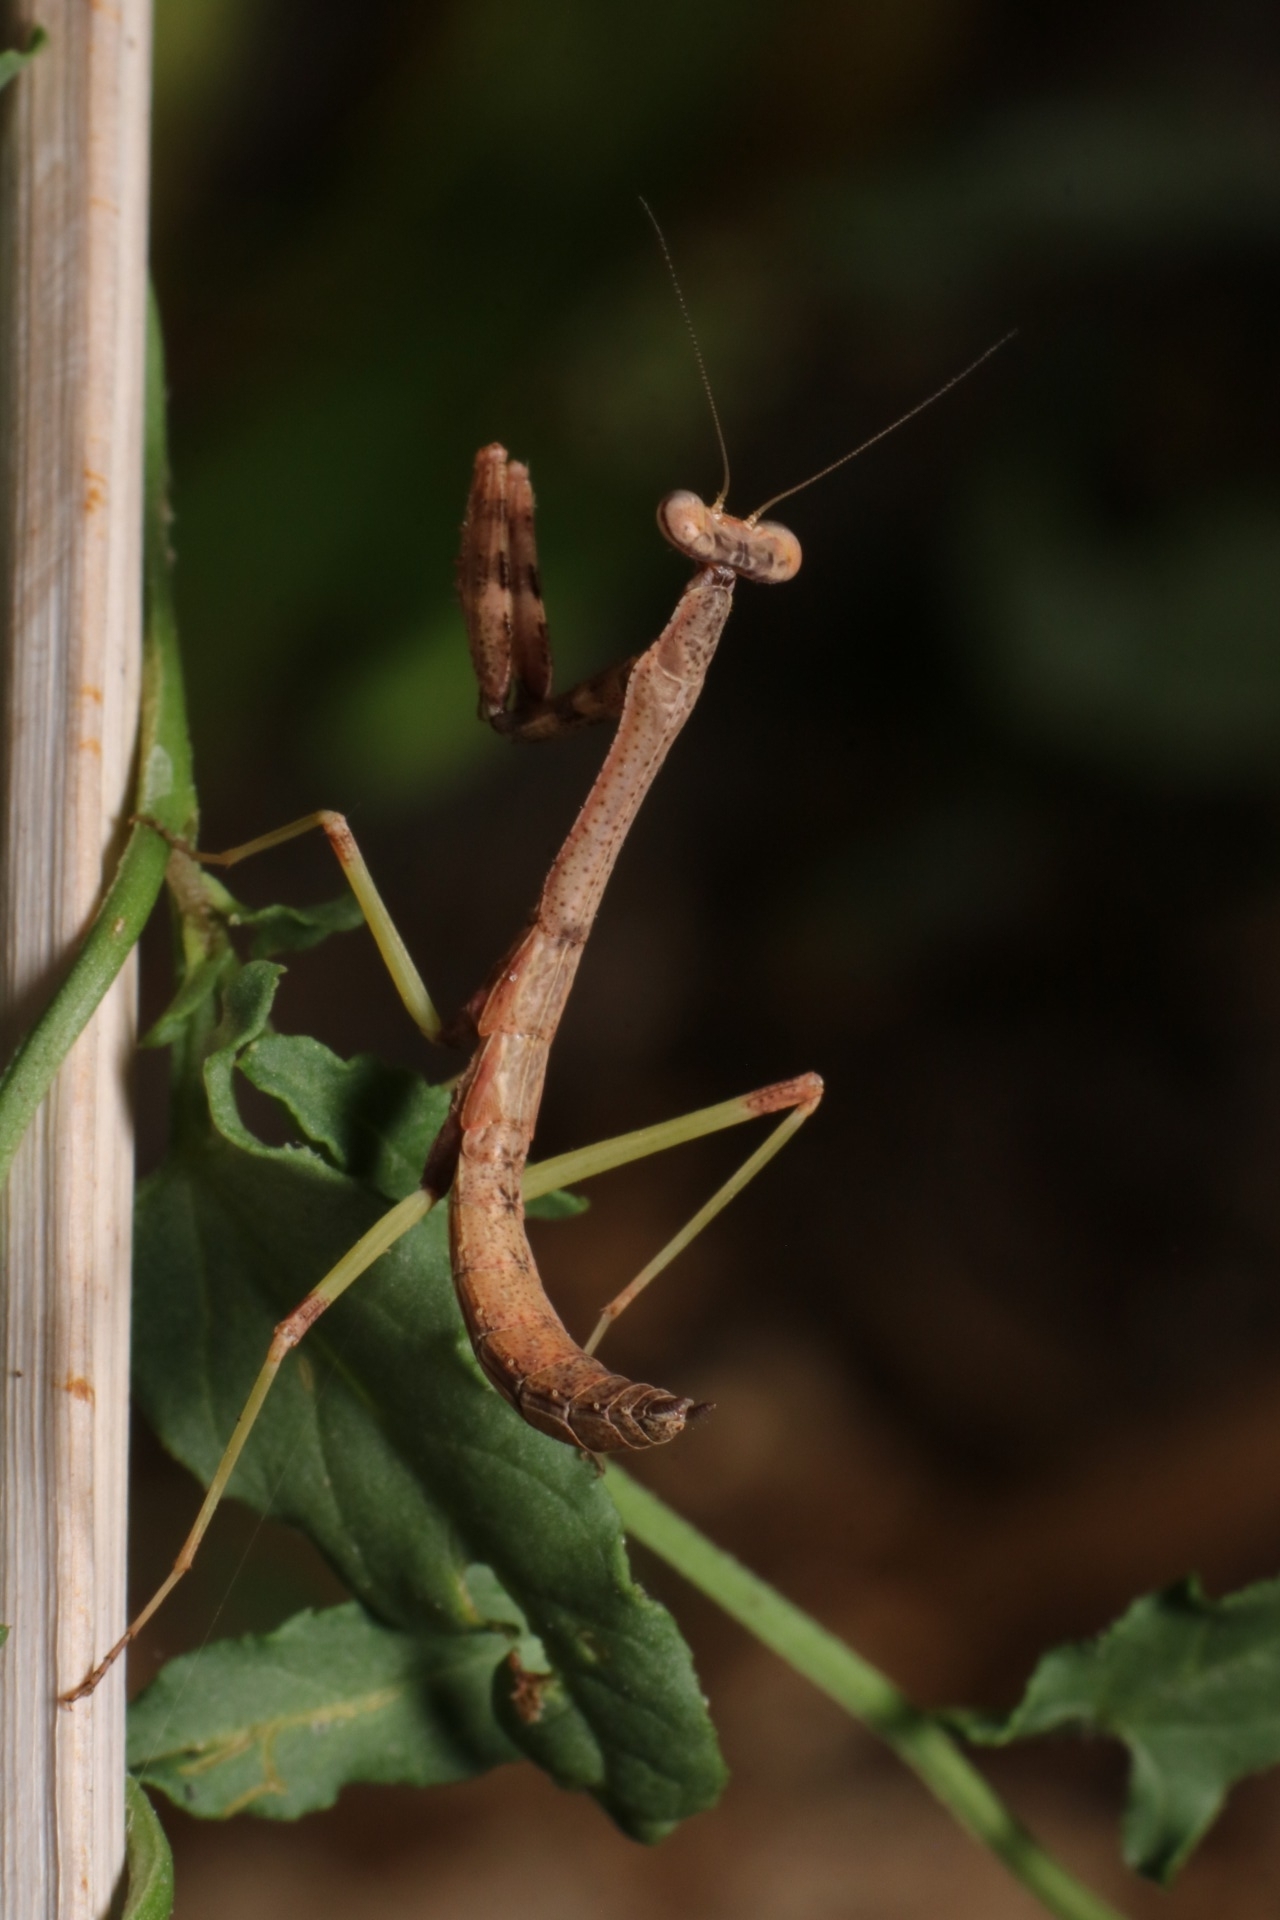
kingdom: Animalia
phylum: Arthropoda
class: Insecta
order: Mantodea
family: Mantidae
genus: Stagmomantis
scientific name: Stagmomantis carolina
